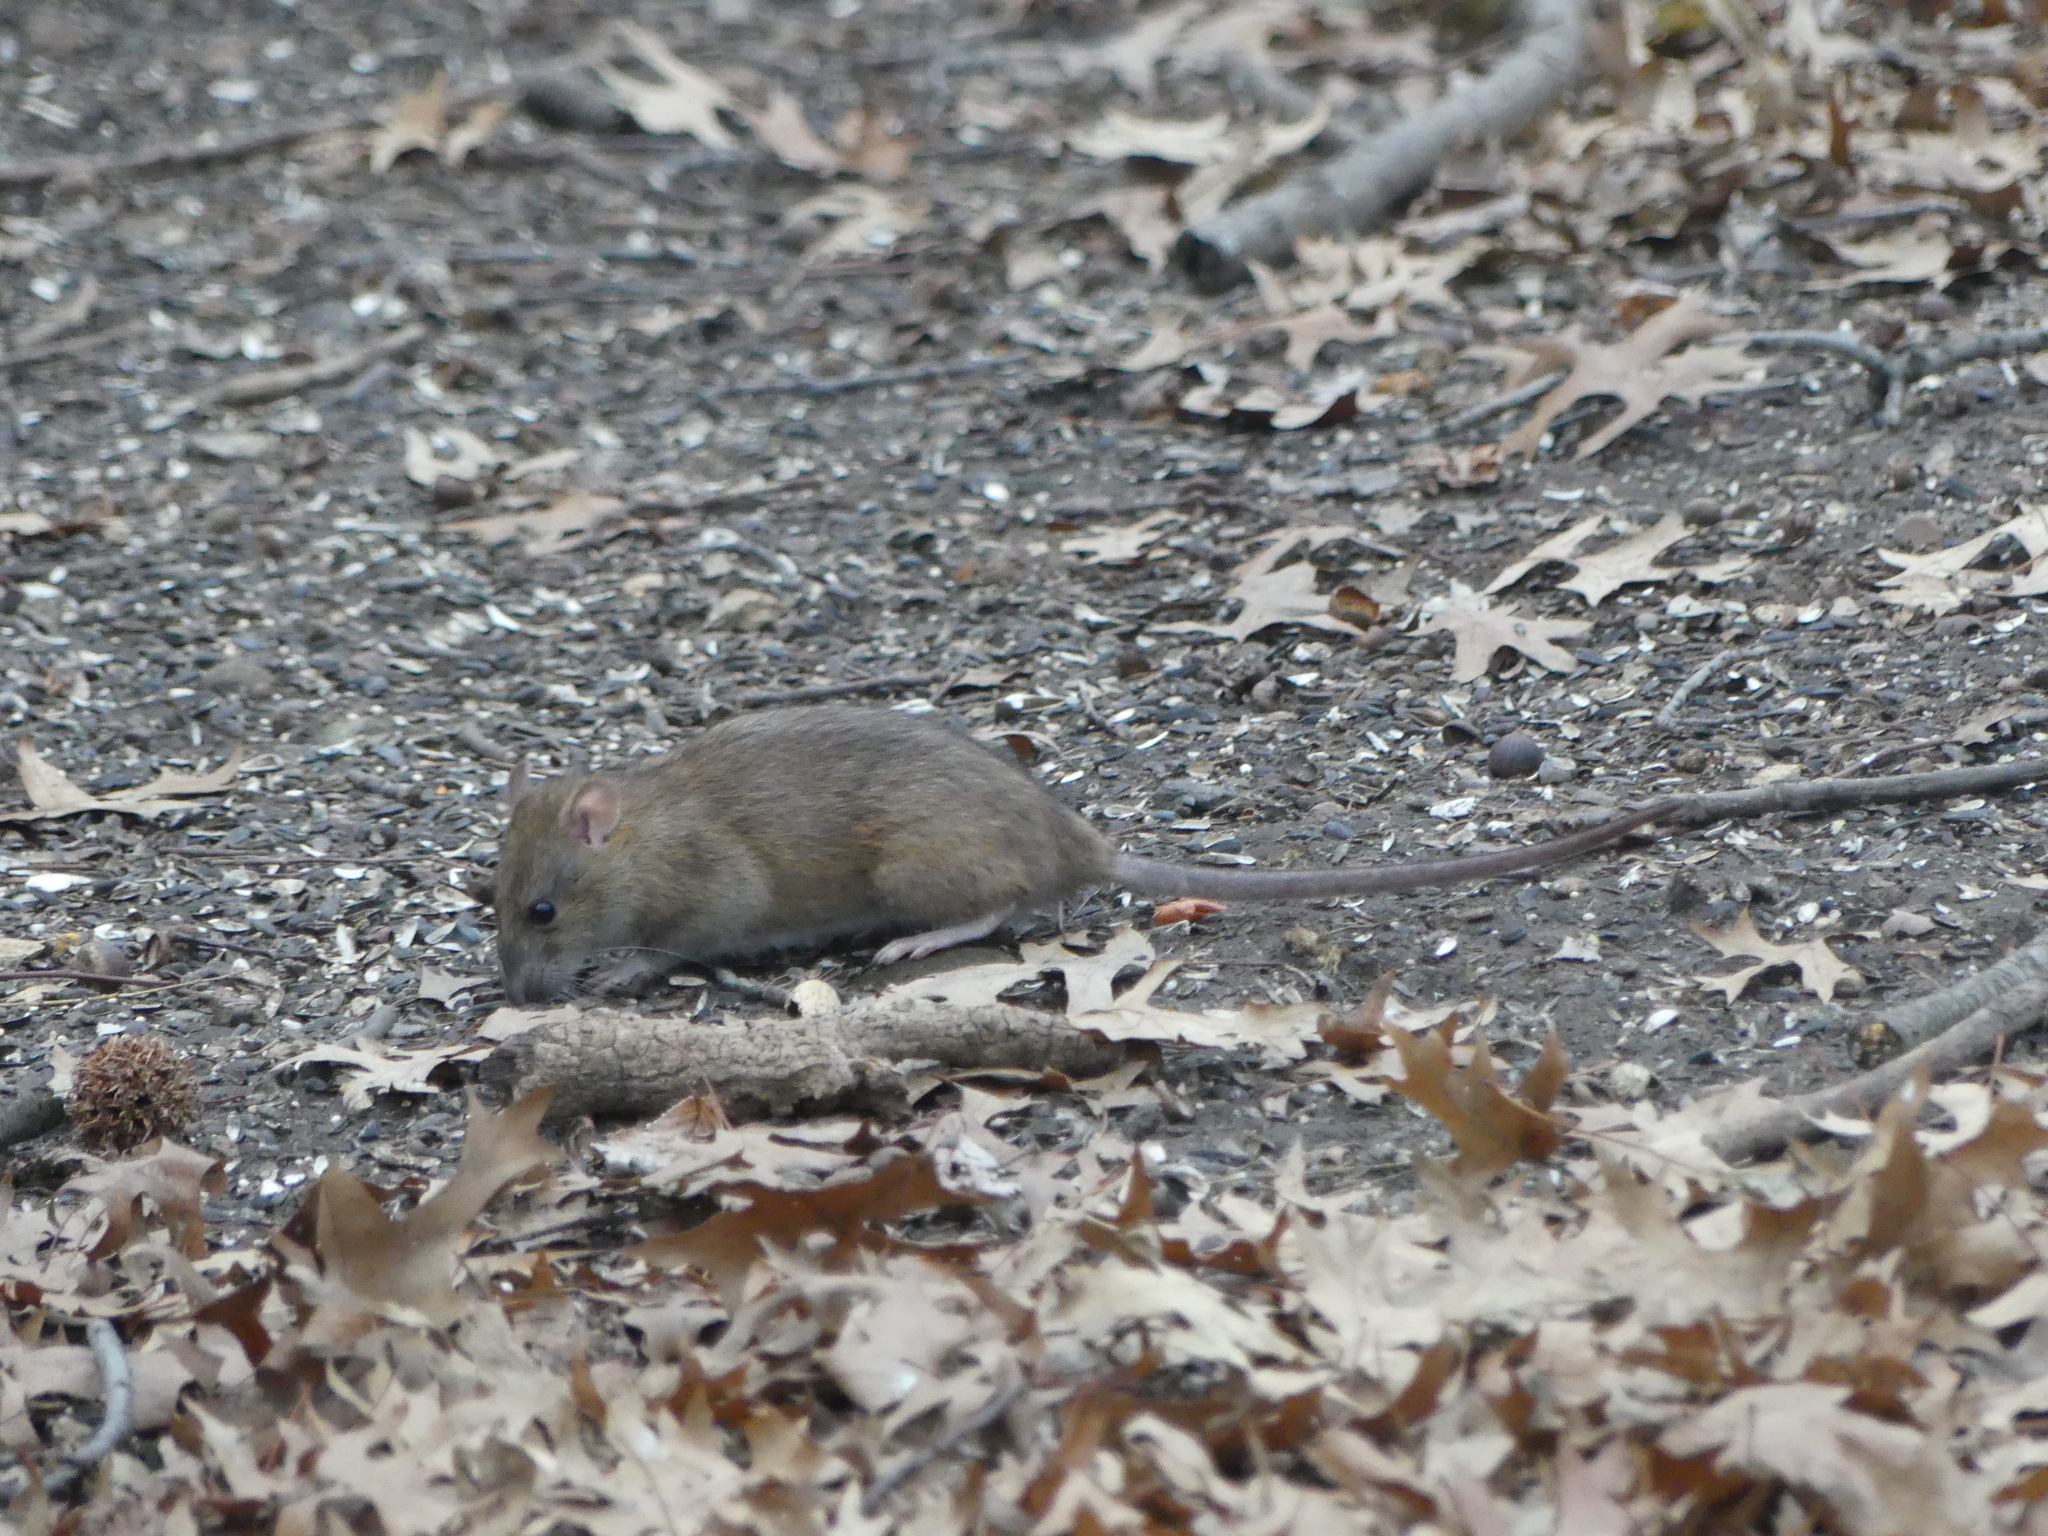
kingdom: Animalia
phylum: Chordata
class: Mammalia
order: Rodentia
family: Muridae
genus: Rattus
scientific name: Rattus norvegicus
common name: Brown rat
